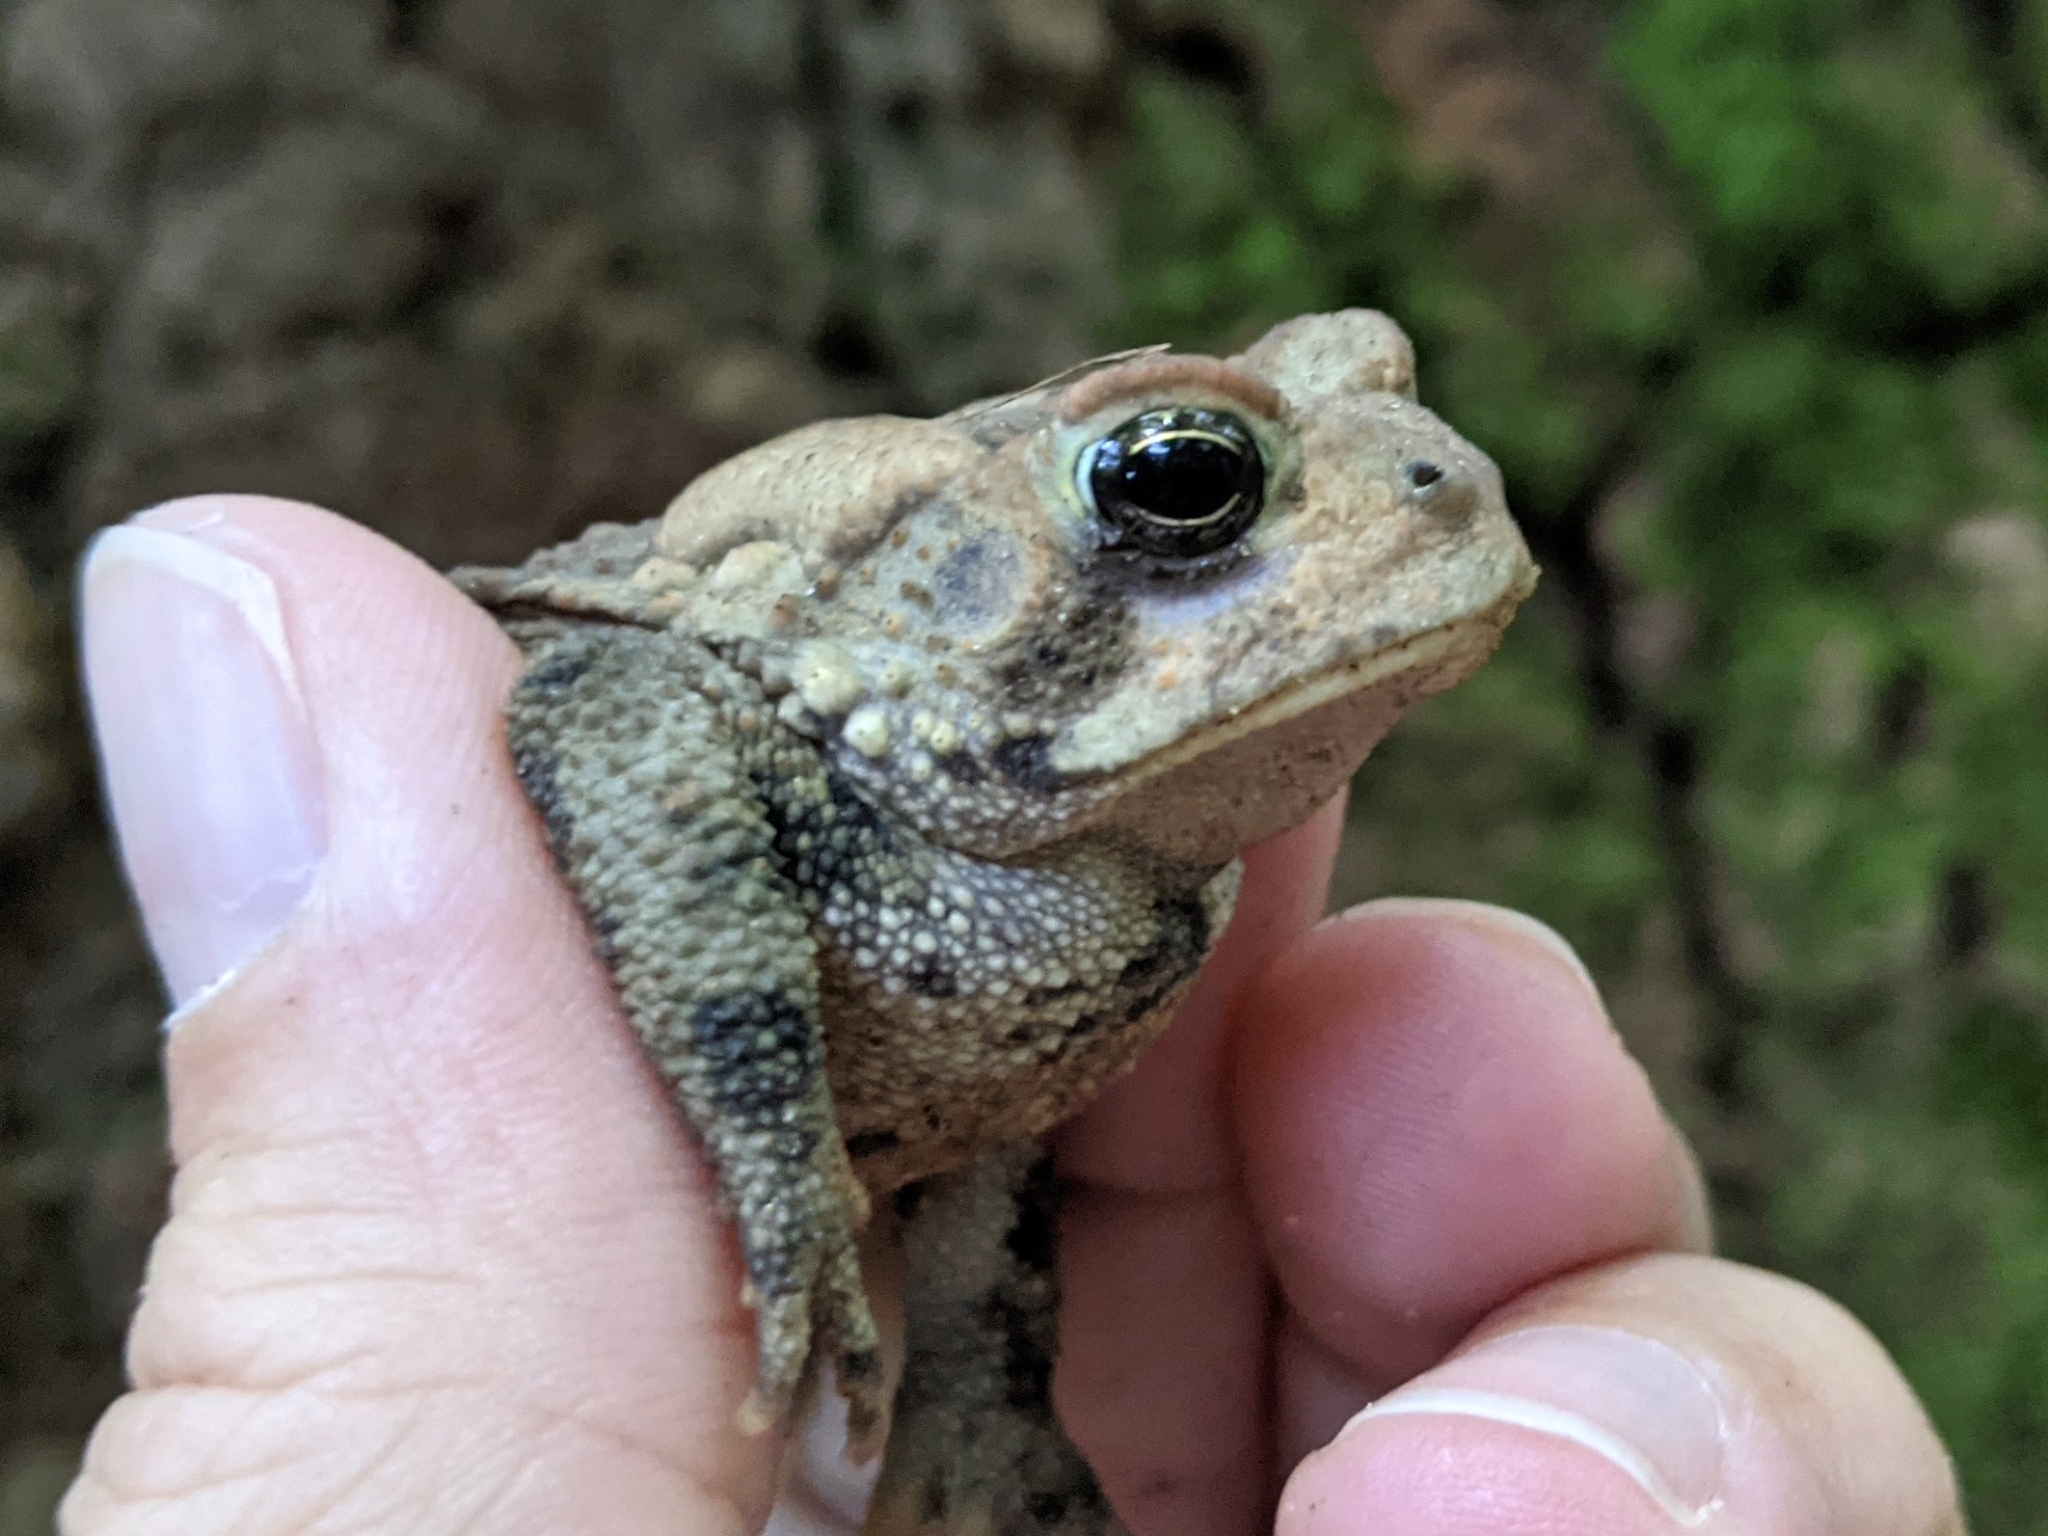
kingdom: Animalia
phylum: Chordata
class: Amphibia
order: Anura
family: Bufonidae
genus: Anaxyrus
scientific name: Anaxyrus americanus
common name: American toad
